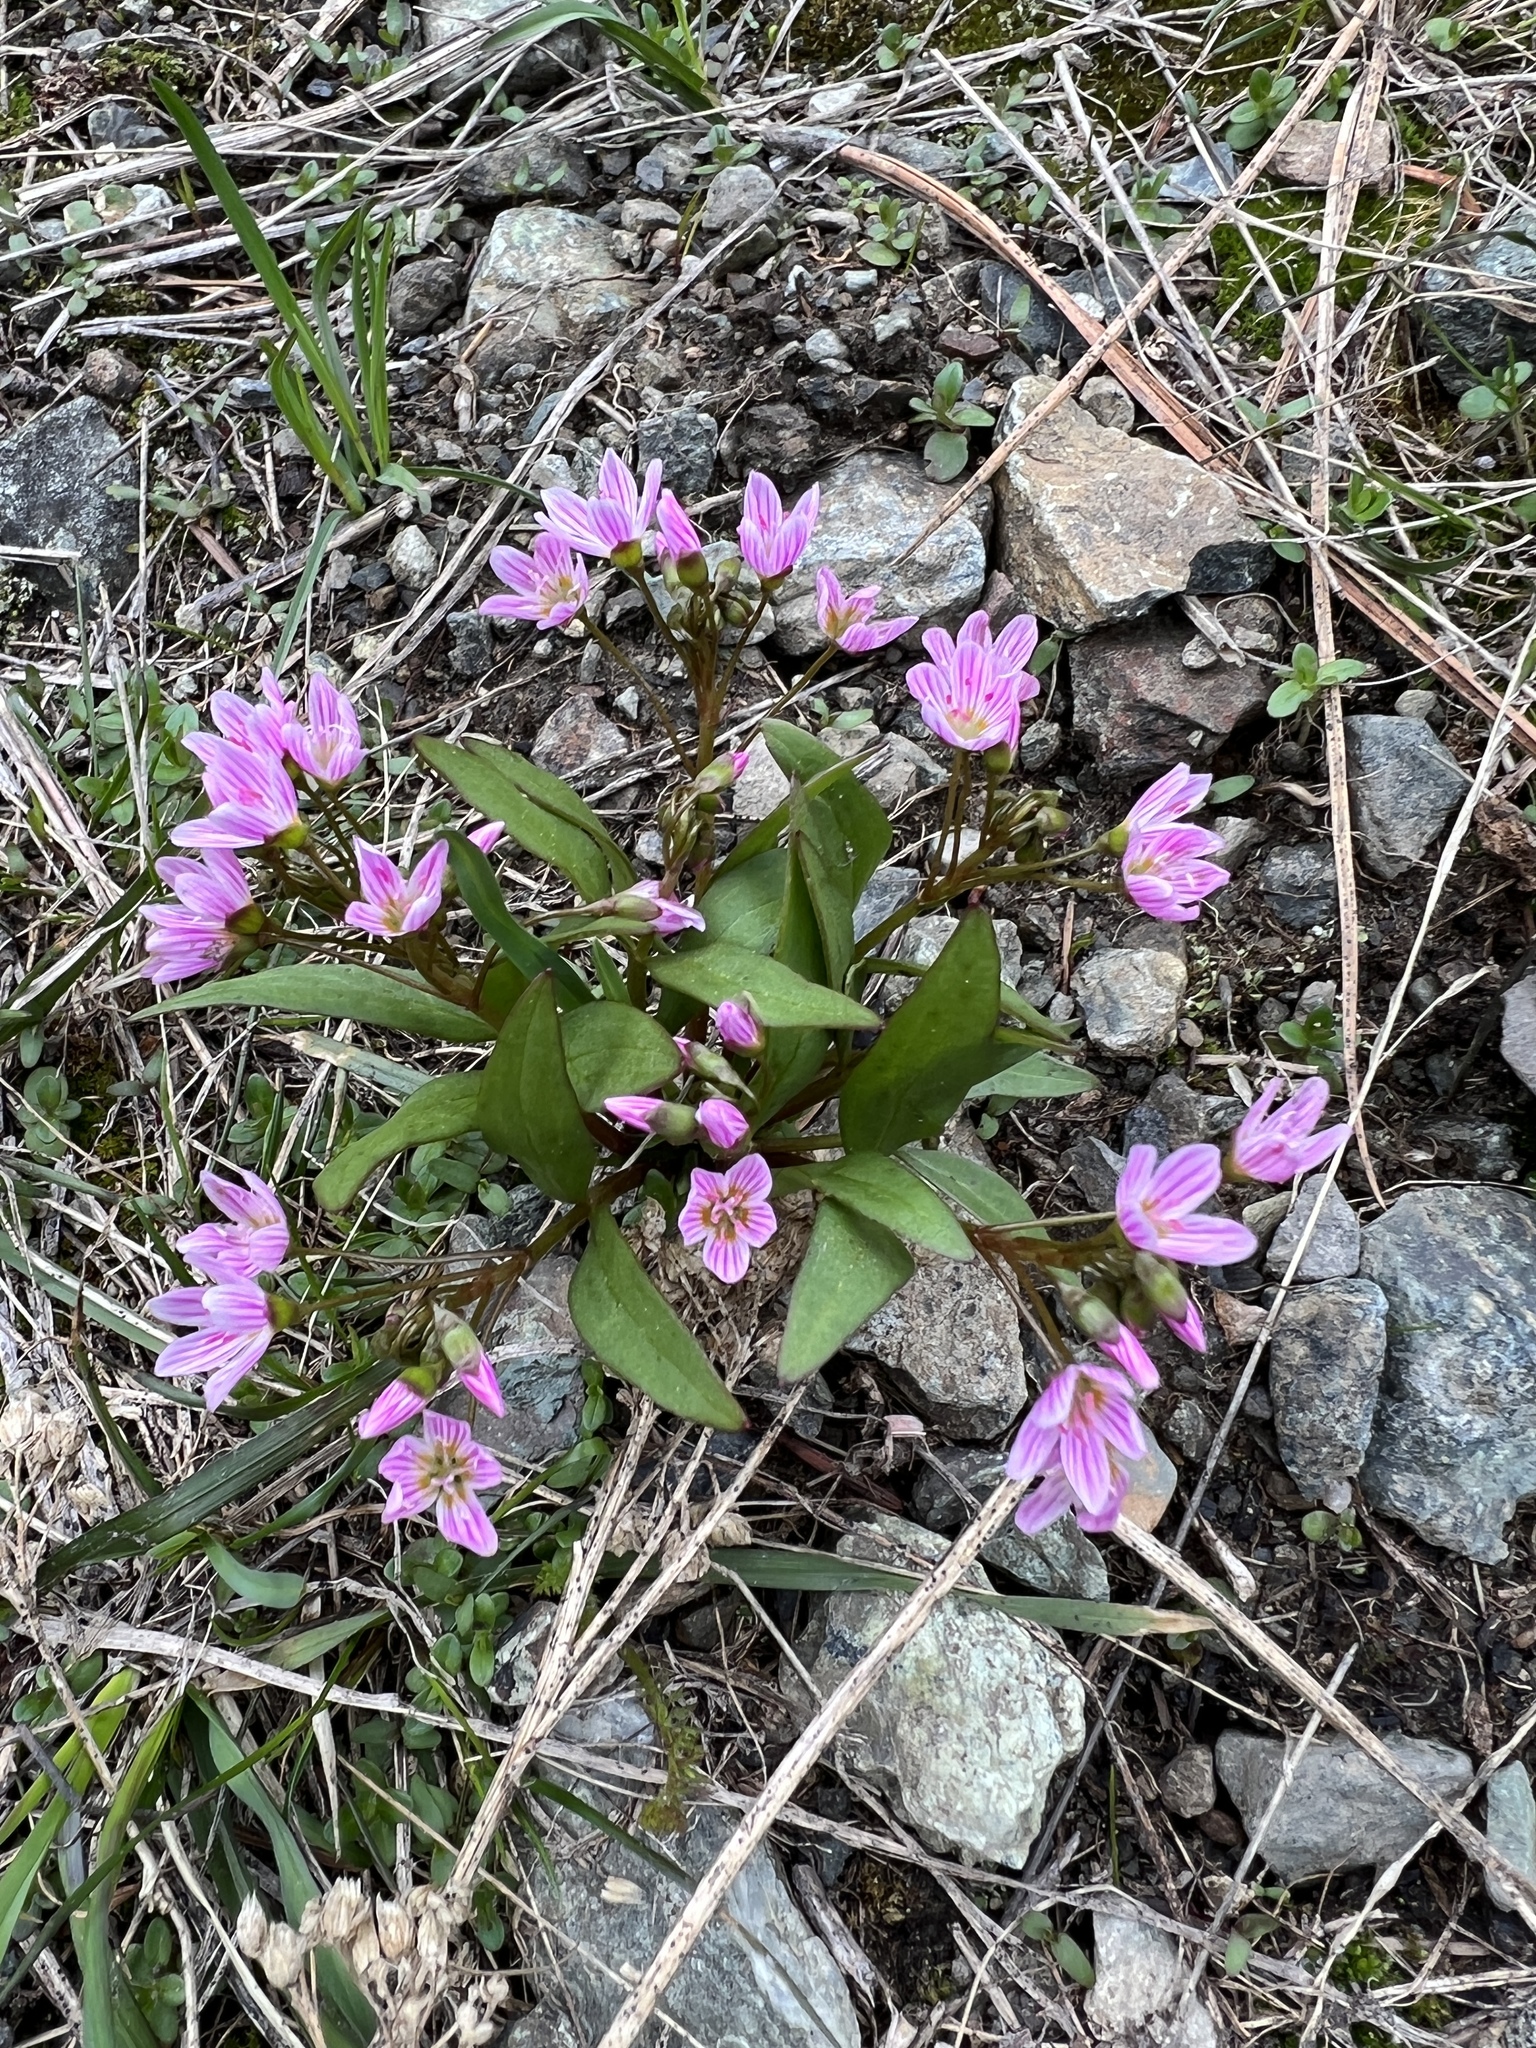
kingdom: Plantae
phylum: Tracheophyta
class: Magnoliopsida
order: Caryophyllales
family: Montiaceae
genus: Claytonia
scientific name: Claytonia lanceolata
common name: Western spring-beauty
